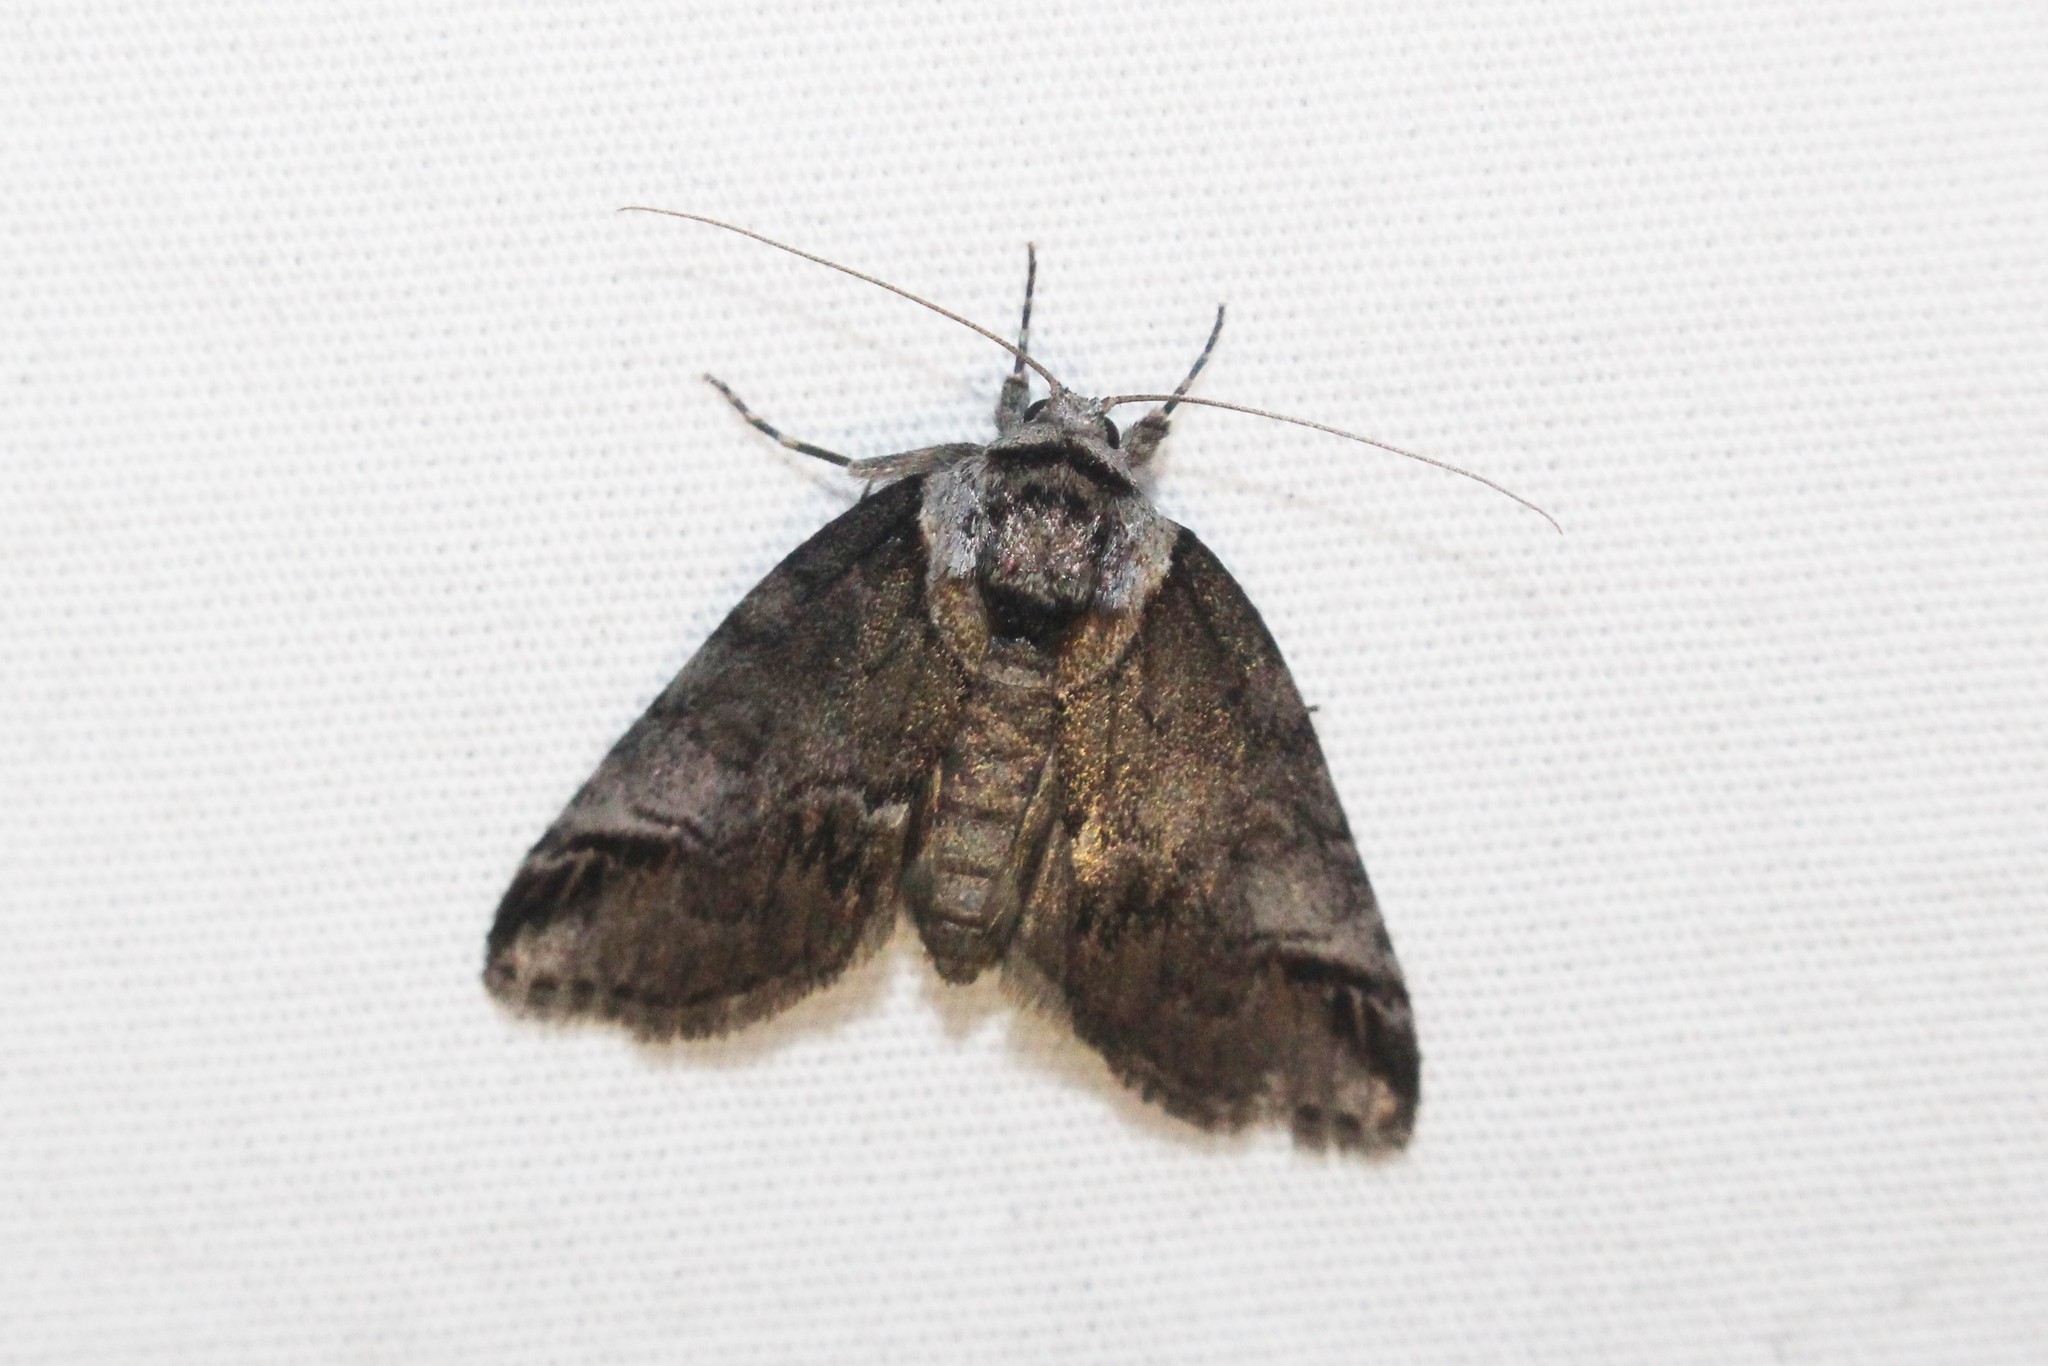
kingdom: Animalia
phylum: Arthropoda
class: Insecta
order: Lepidoptera
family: Nolidae
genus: Baileya
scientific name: Baileya australis
